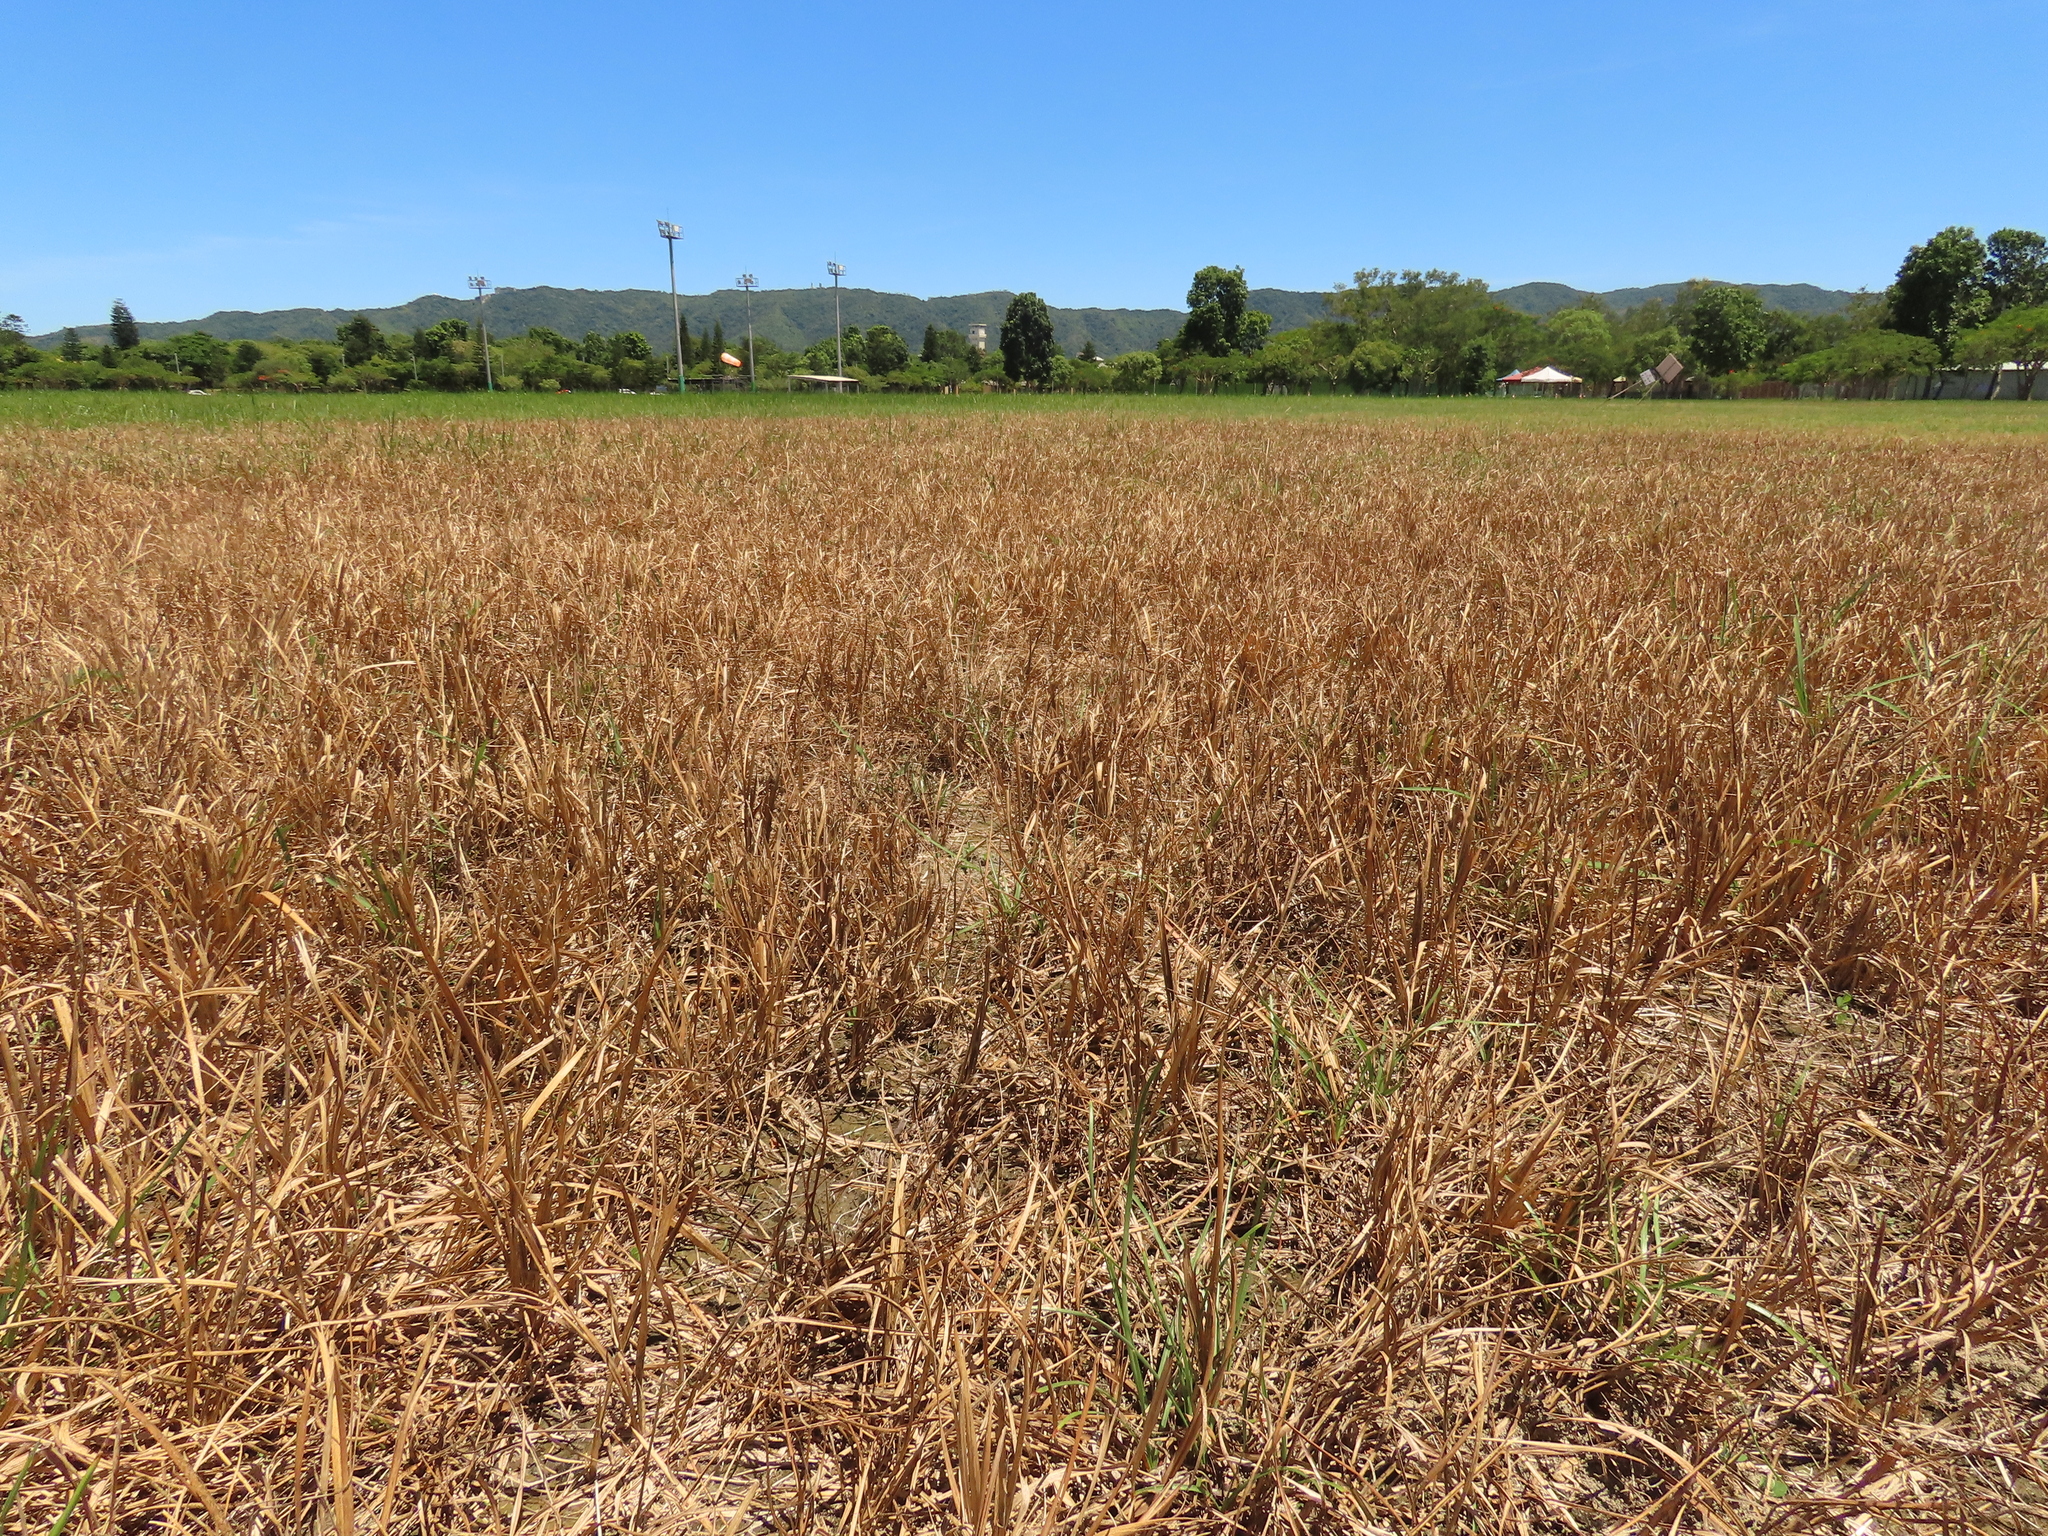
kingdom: Plantae
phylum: Tracheophyta
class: Magnoliopsida
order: Fabales
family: Fabaceae
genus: Alysicarpus
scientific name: Alysicarpus vaginalis
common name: White moneywort
